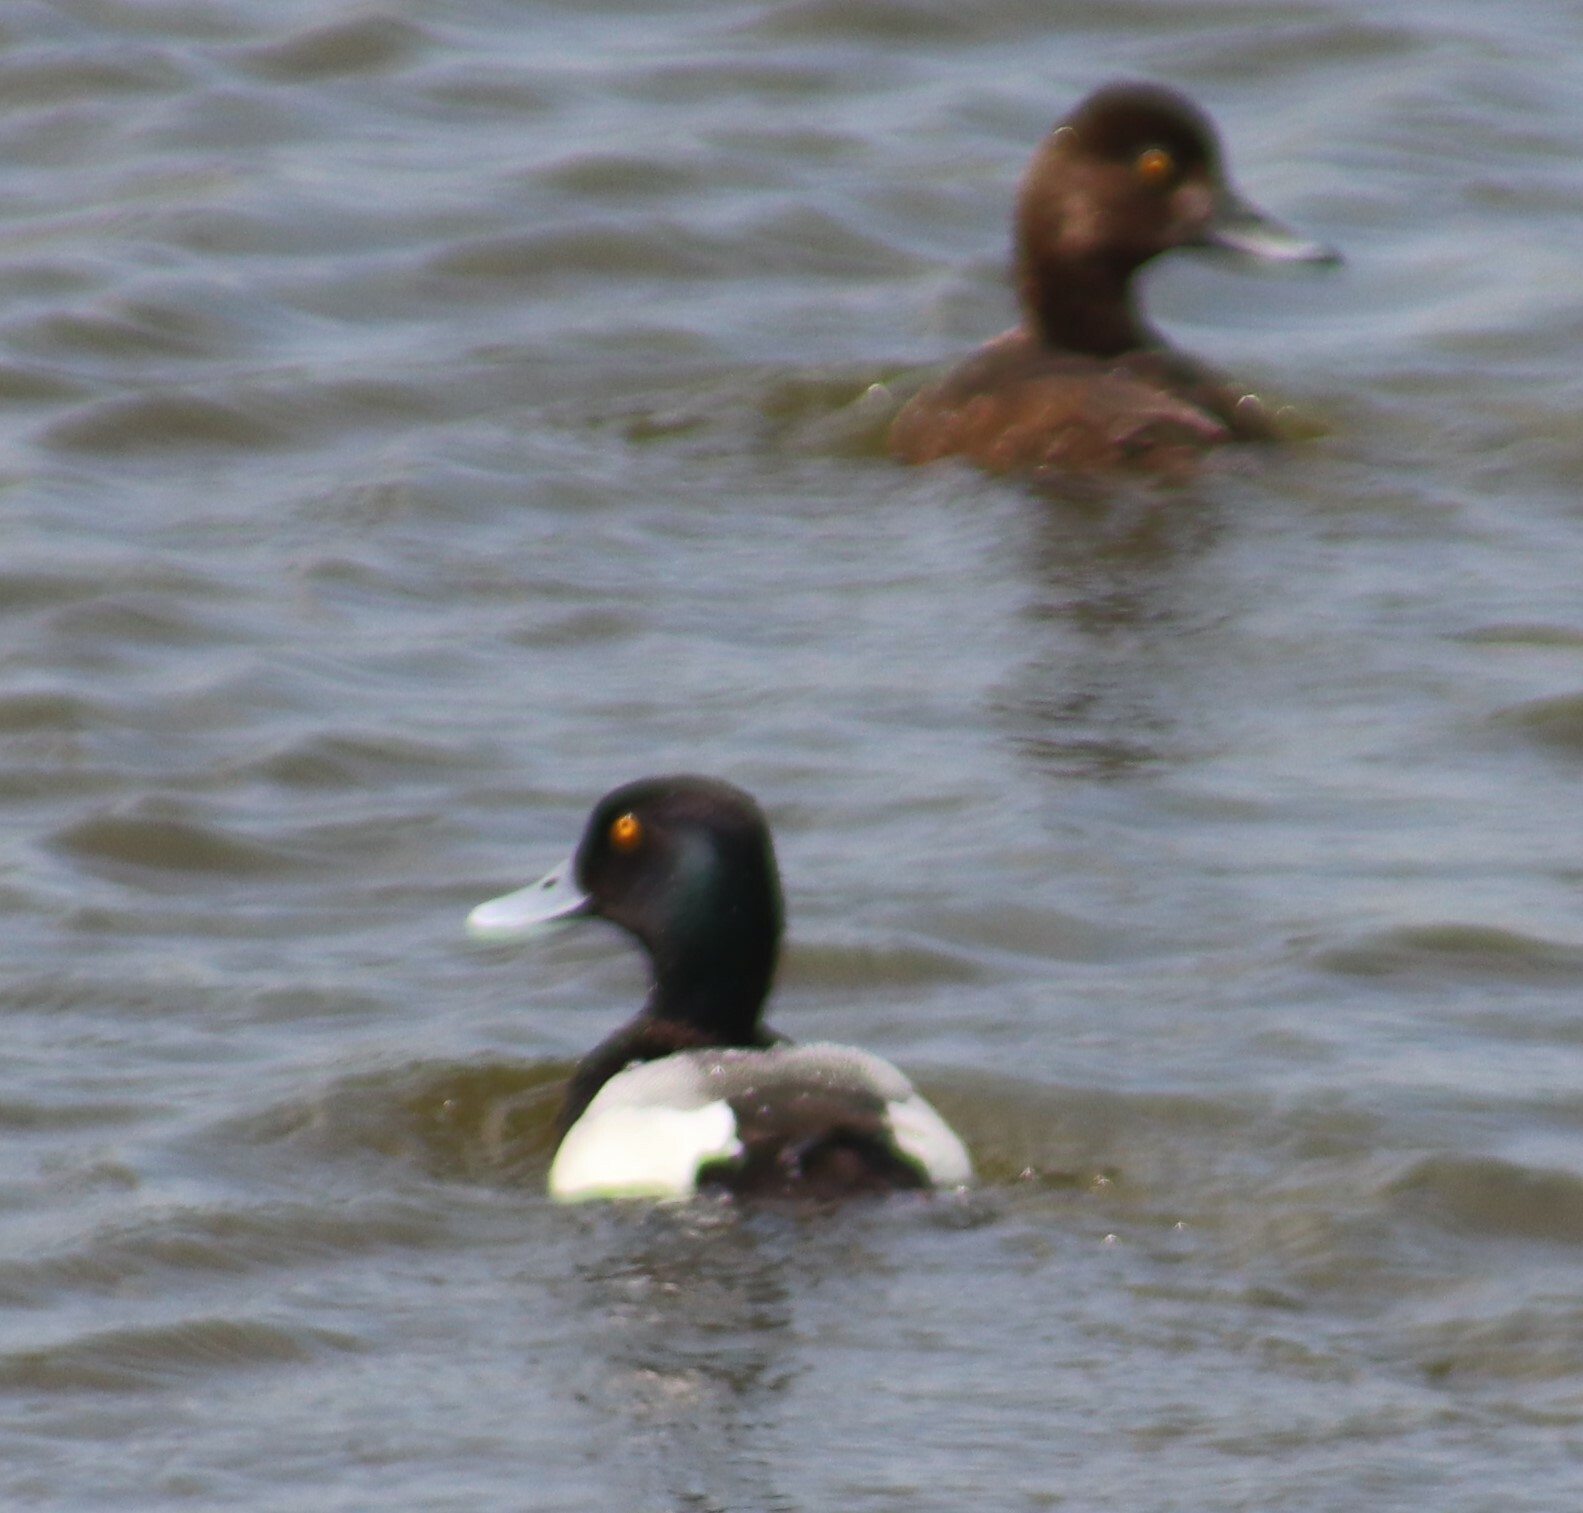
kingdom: Animalia
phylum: Chordata
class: Aves
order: Anseriformes
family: Anatidae
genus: Aythya
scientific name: Aythya affinis
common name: Lesser scaup
